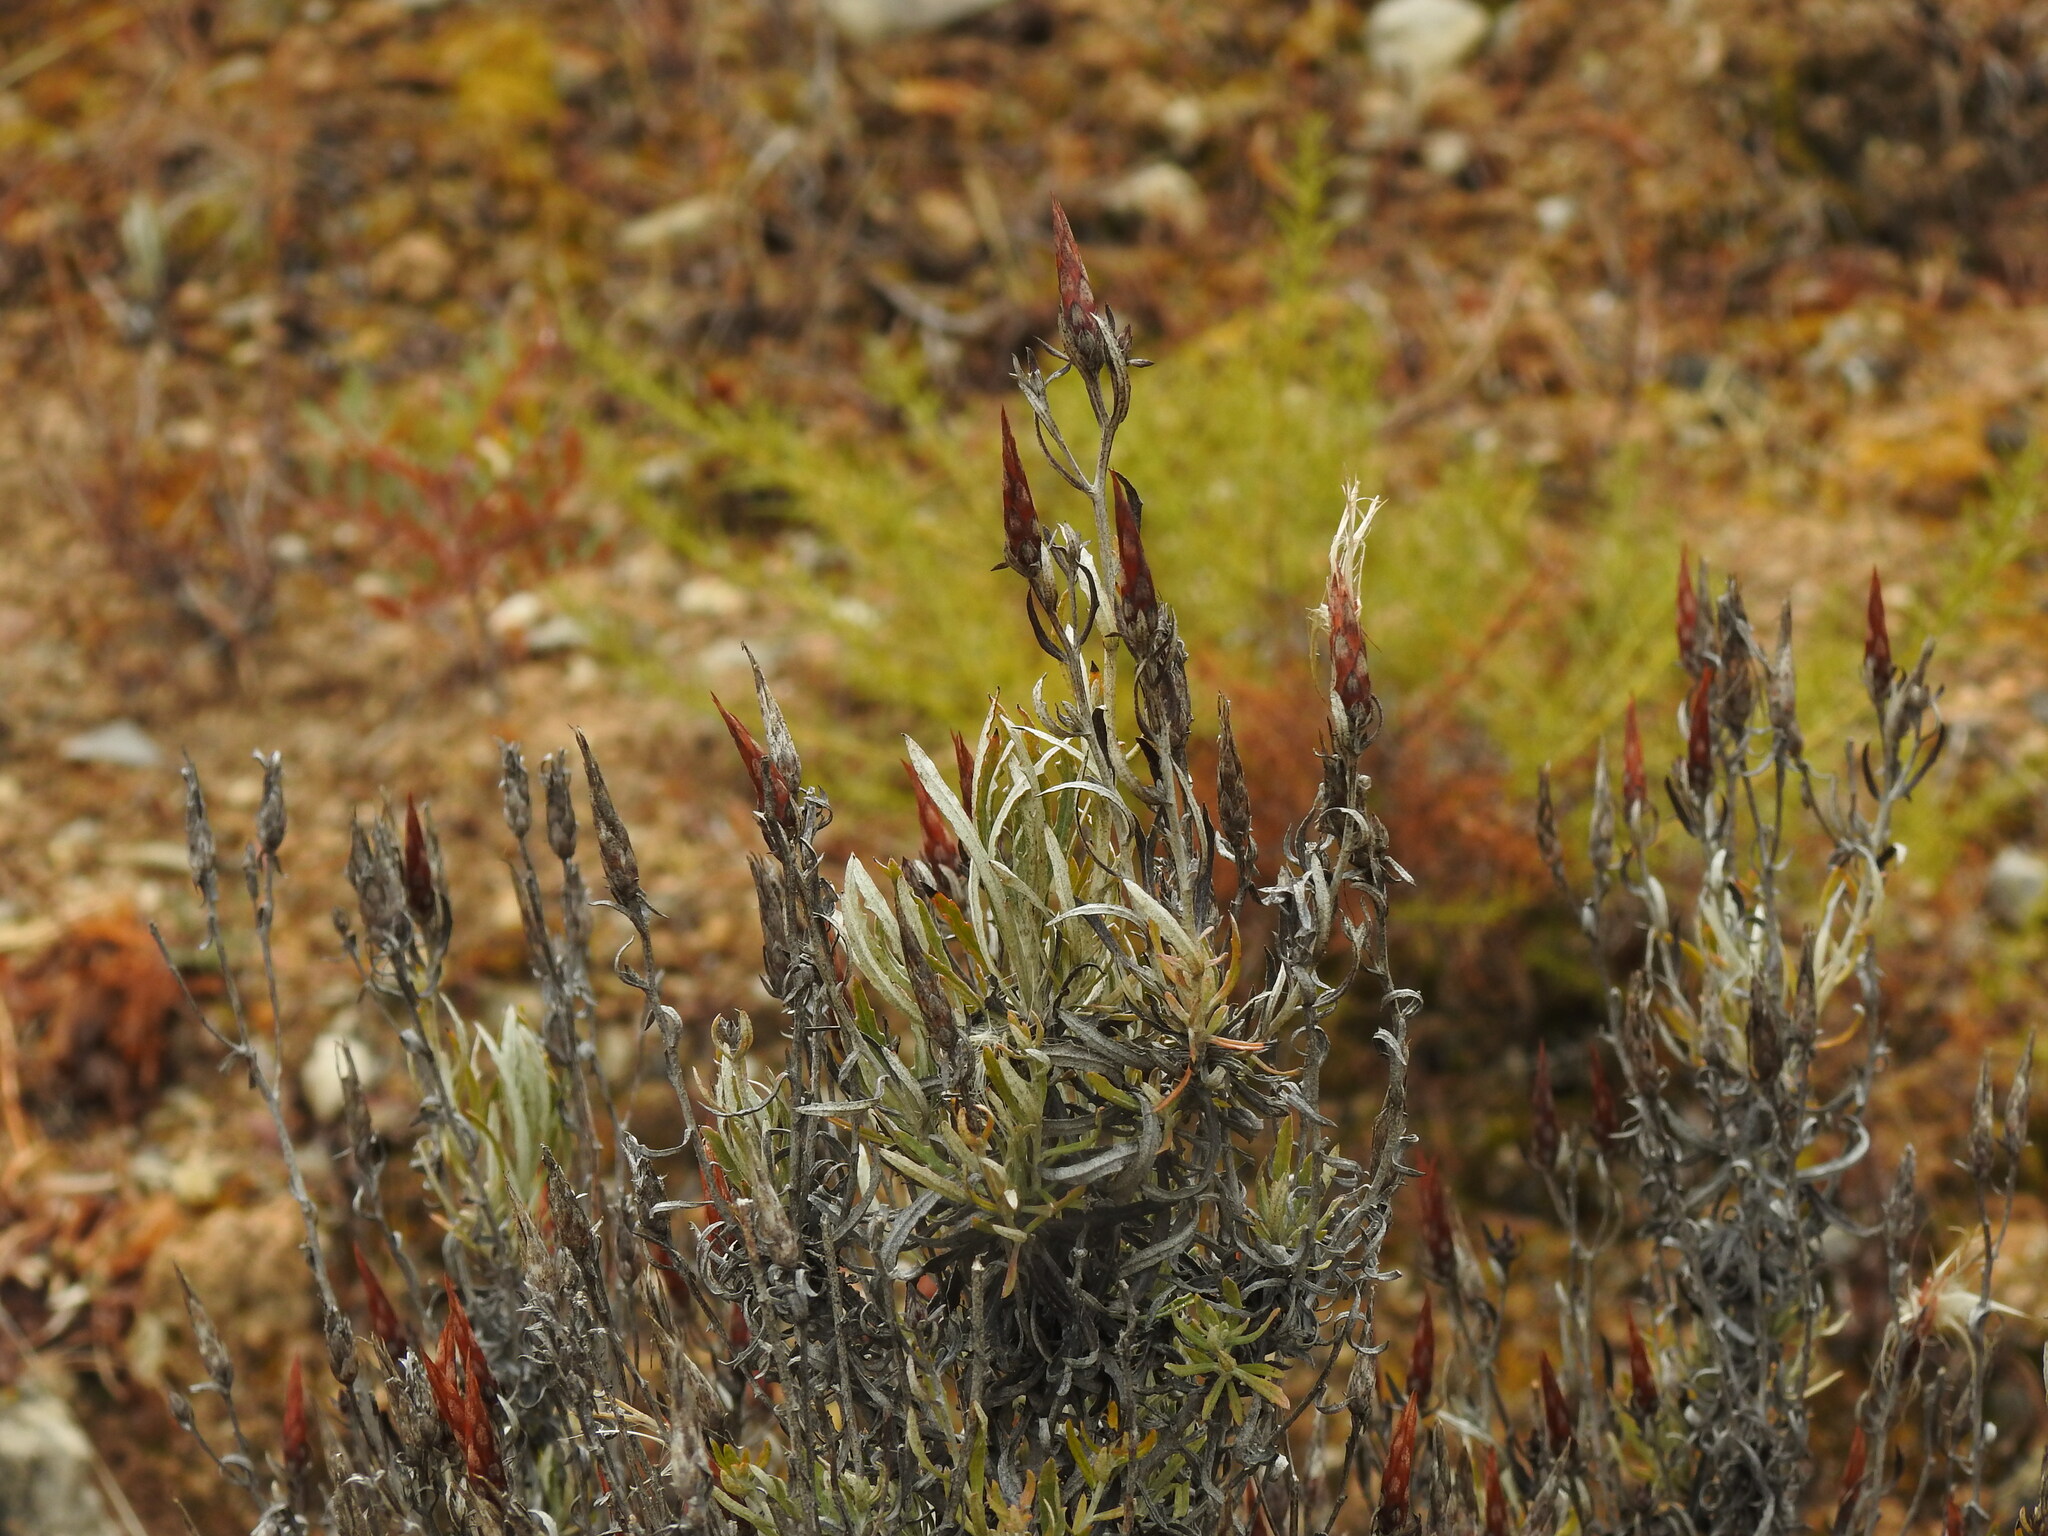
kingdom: Plantae
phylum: Tracheophyta
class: Magnoliopsida
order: Asterales
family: Asteraceae
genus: Staehelina
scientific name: Staehelina dubia
